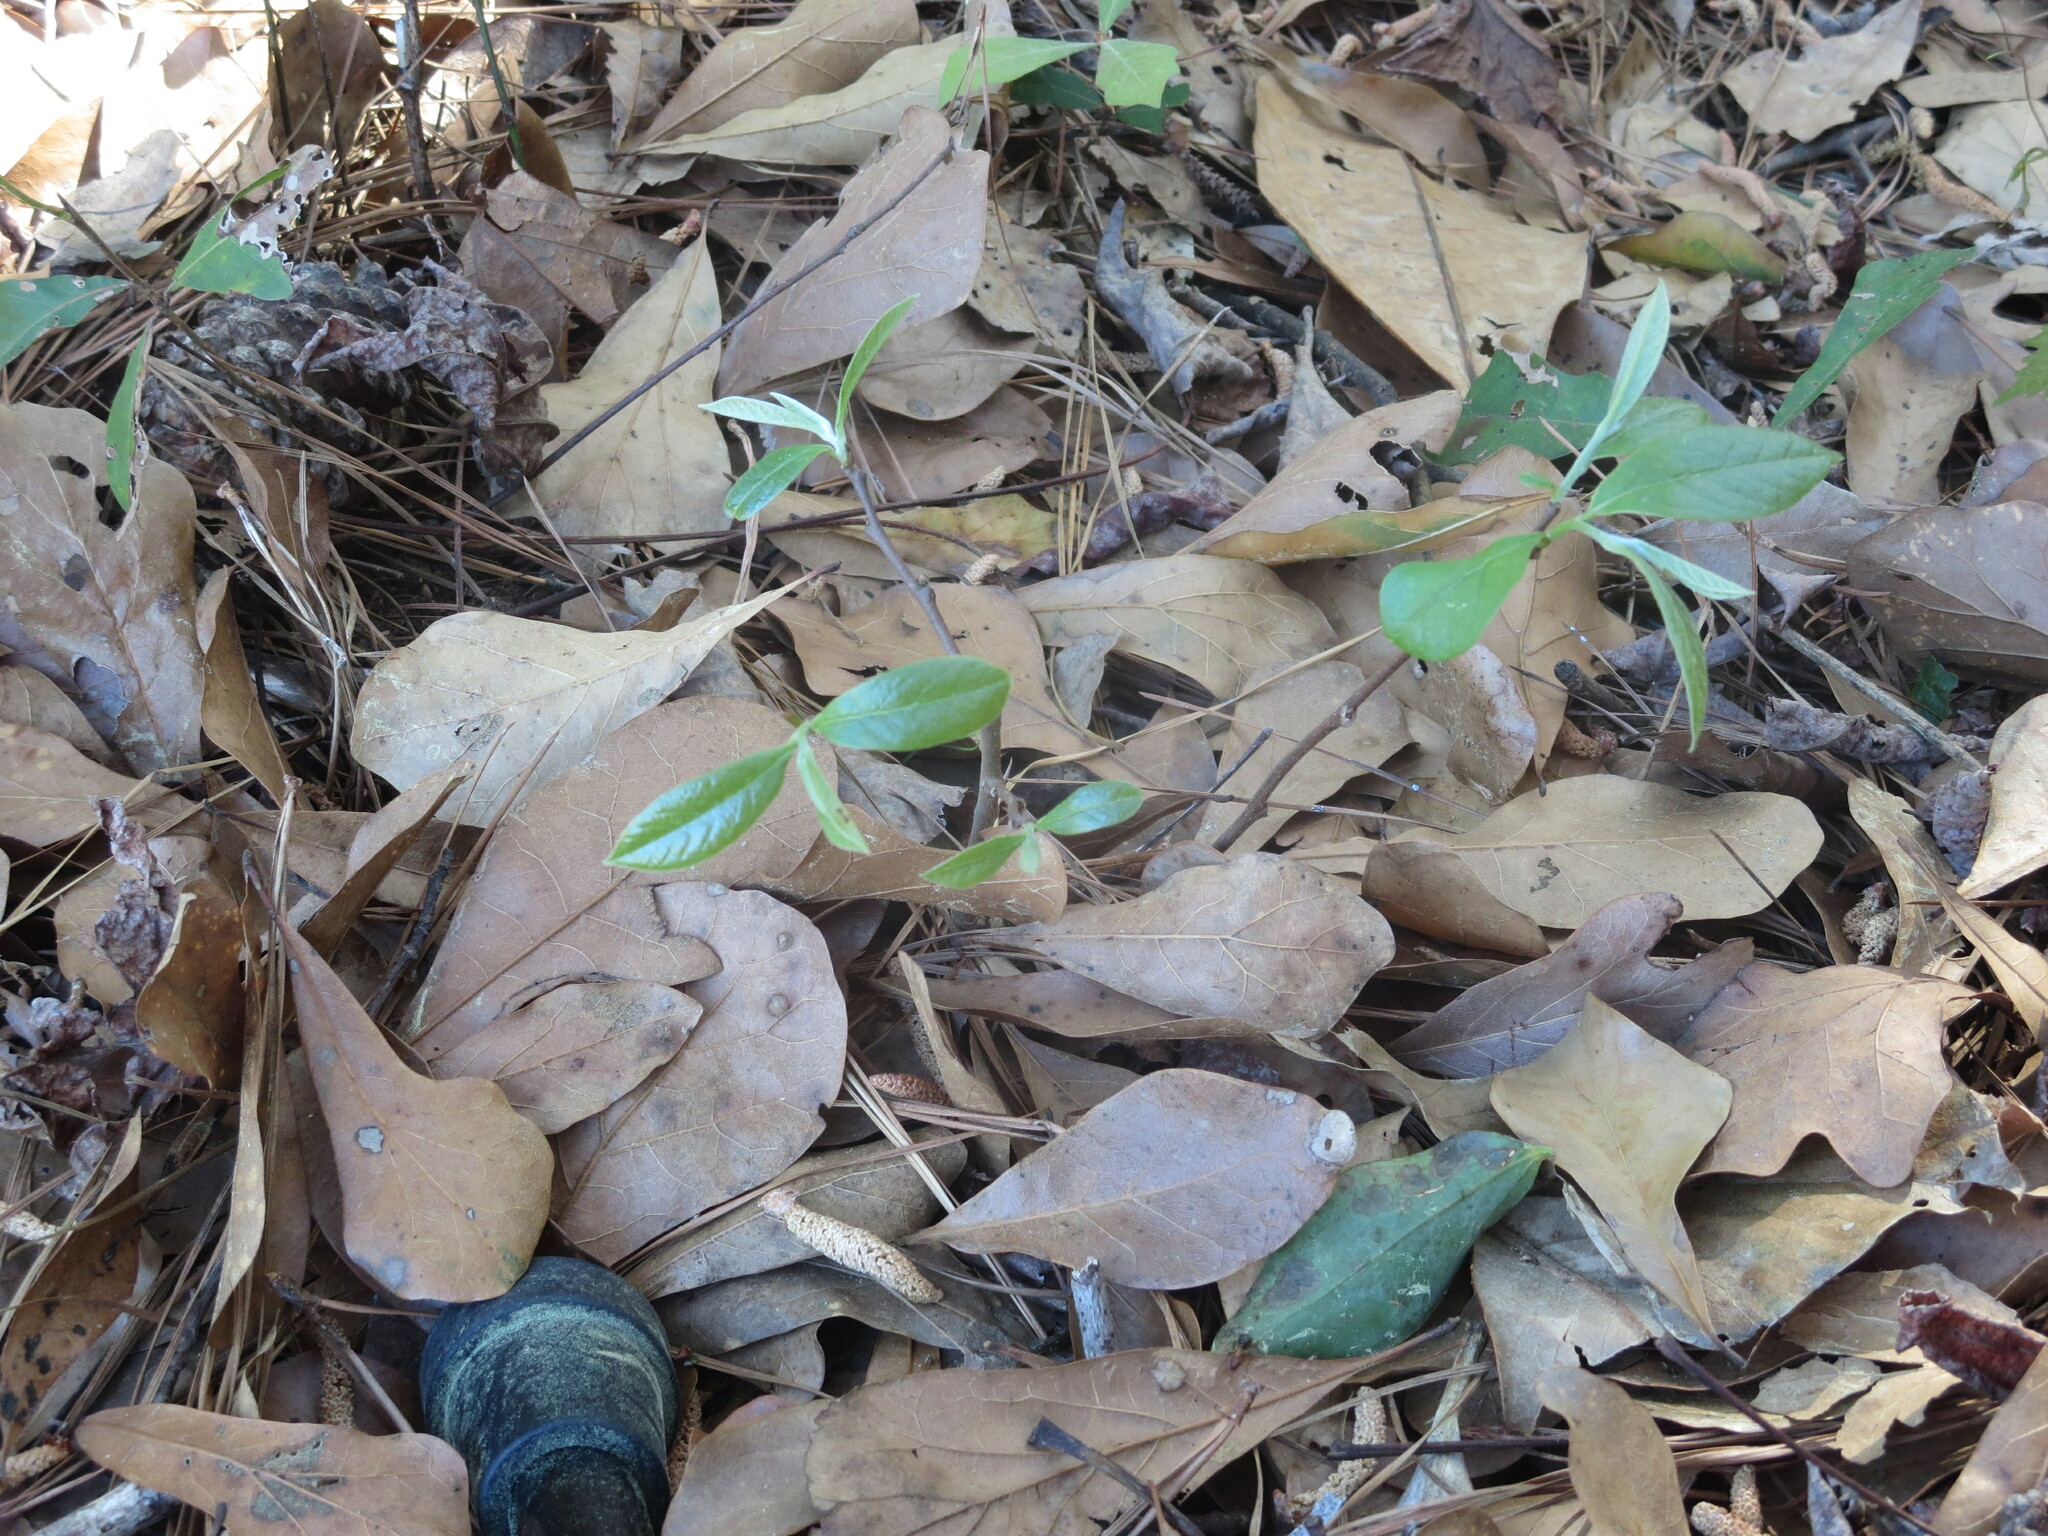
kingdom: Plantae
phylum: Tracheophyta
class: Magnoliopsida
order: Magnoliales
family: Annonaceae
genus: Asimina
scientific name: Asimina parviflora
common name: Dwarf pawpaw
